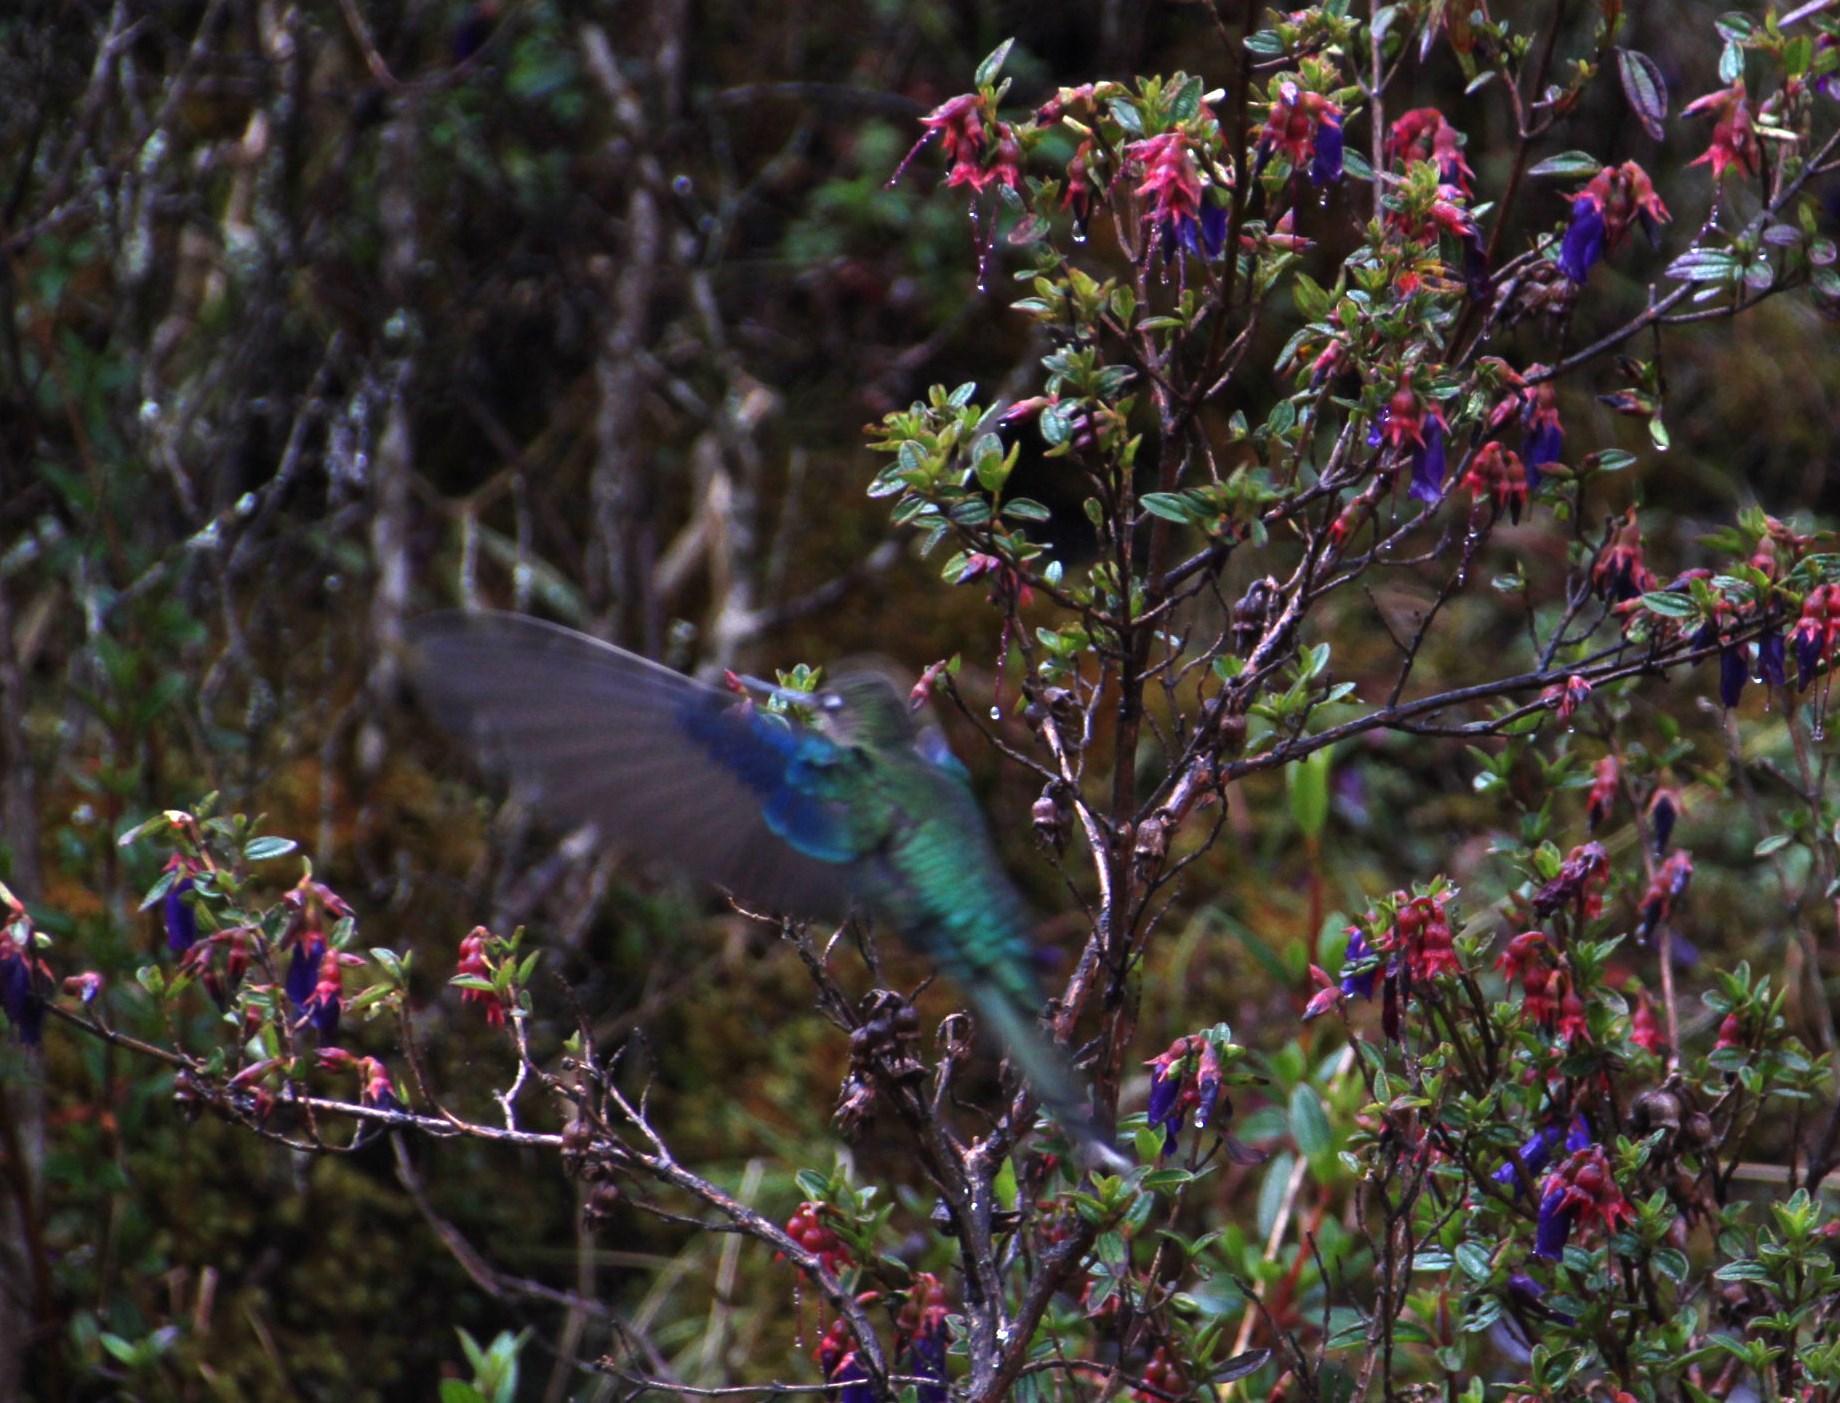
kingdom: Animalia
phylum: Chordata
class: Aves
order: Apodiformes
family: Trochilidae
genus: Pterophanes
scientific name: Pterophanes cyanopterus
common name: Great sapphirewing
